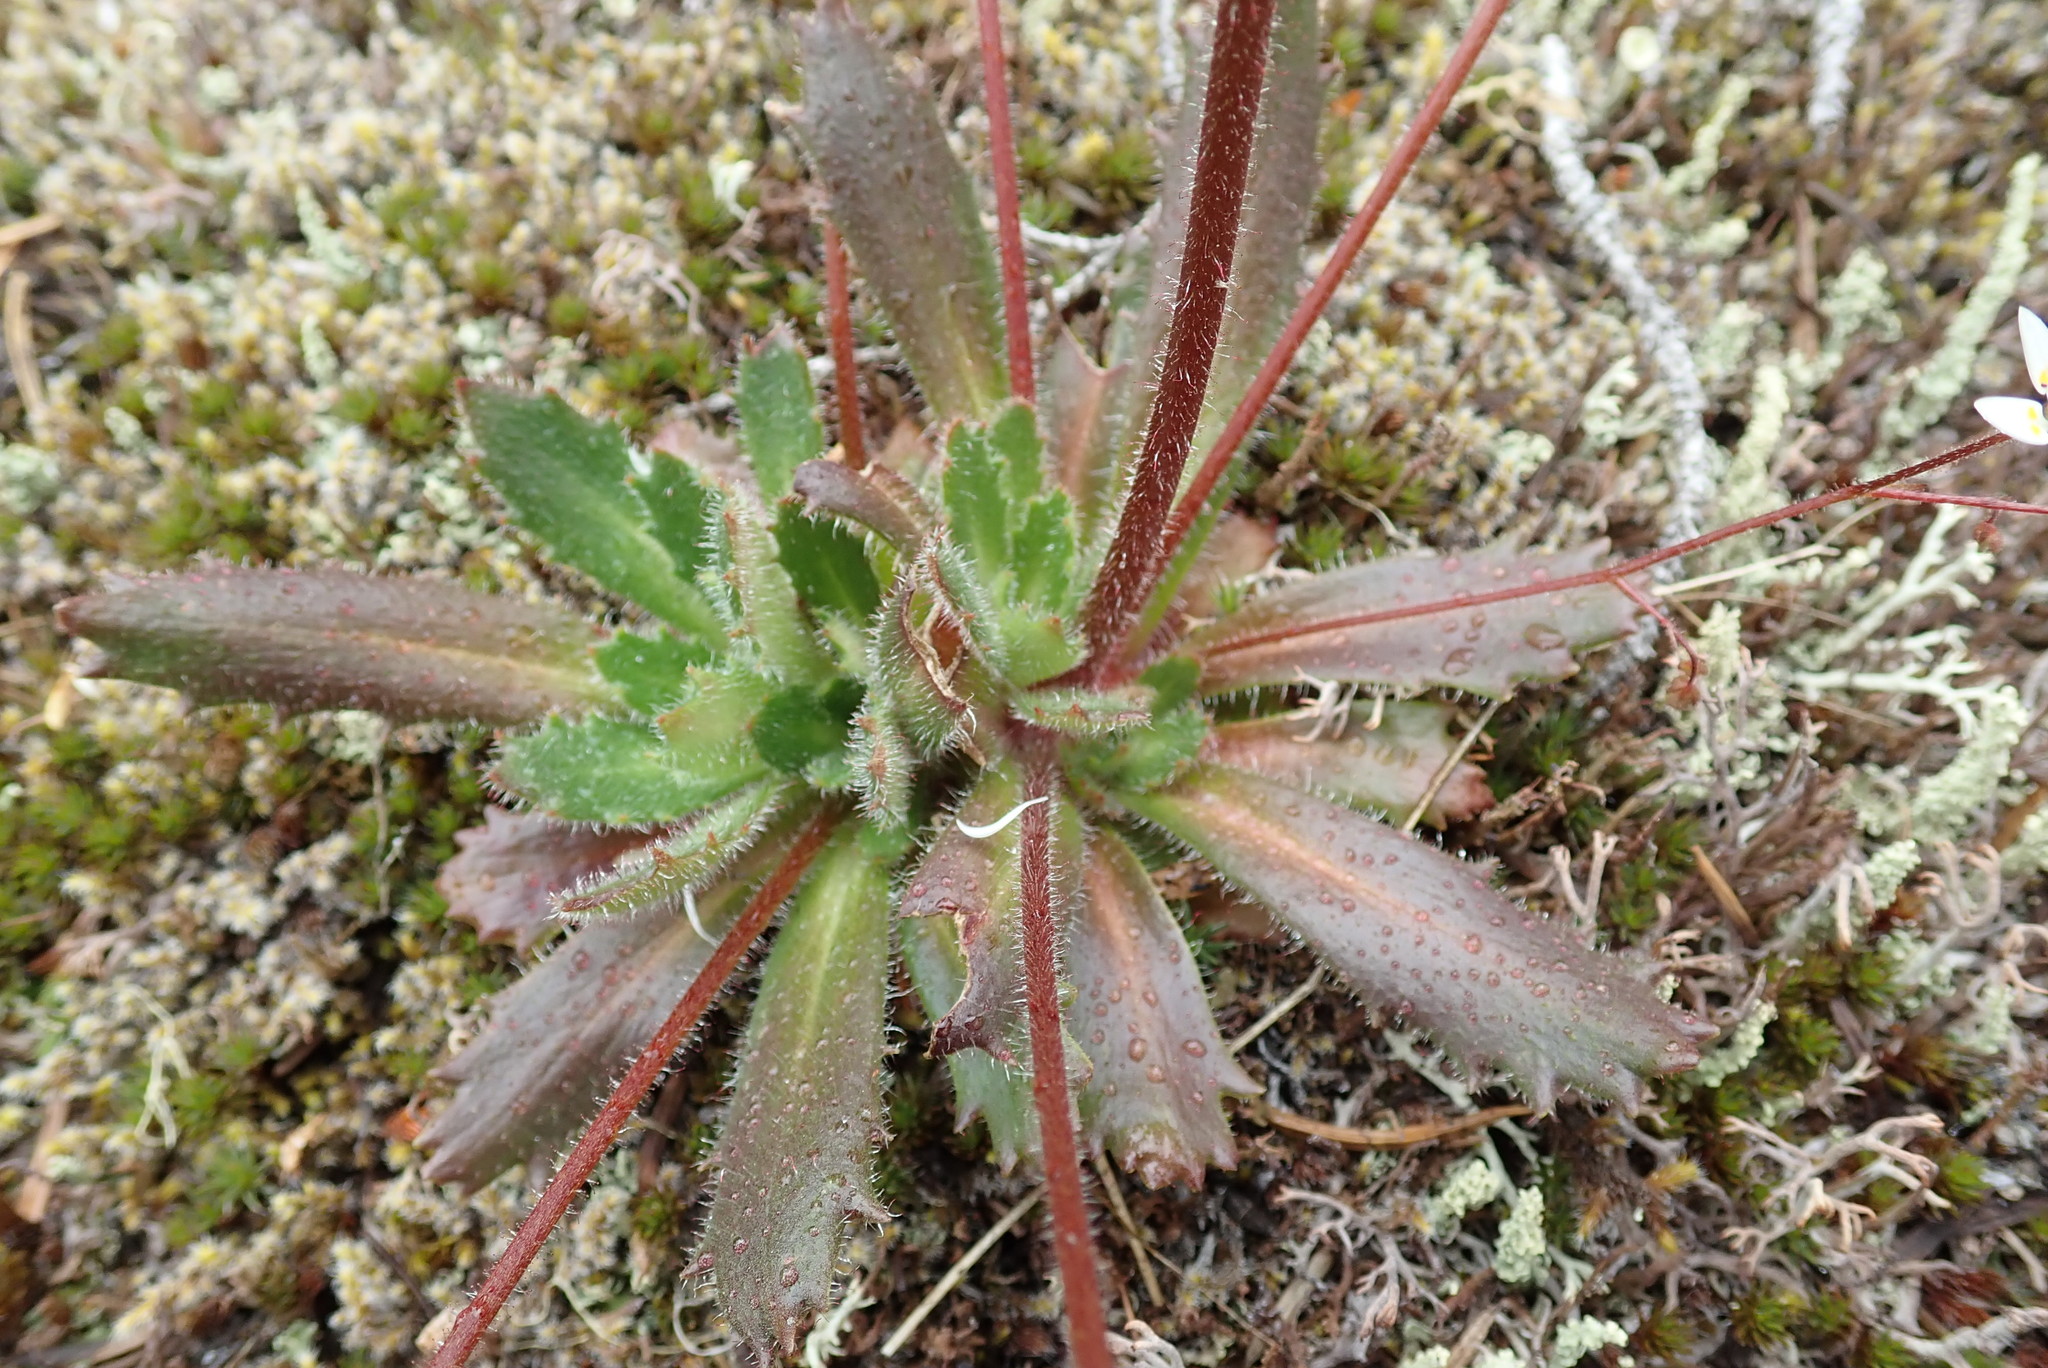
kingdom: Plantae
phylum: Tracheophyta
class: Magnoliopsida
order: Saxifragales
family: Saxifragaceae
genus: Micranthes
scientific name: Micranthes ferruginea
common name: Rusty saxifrage
